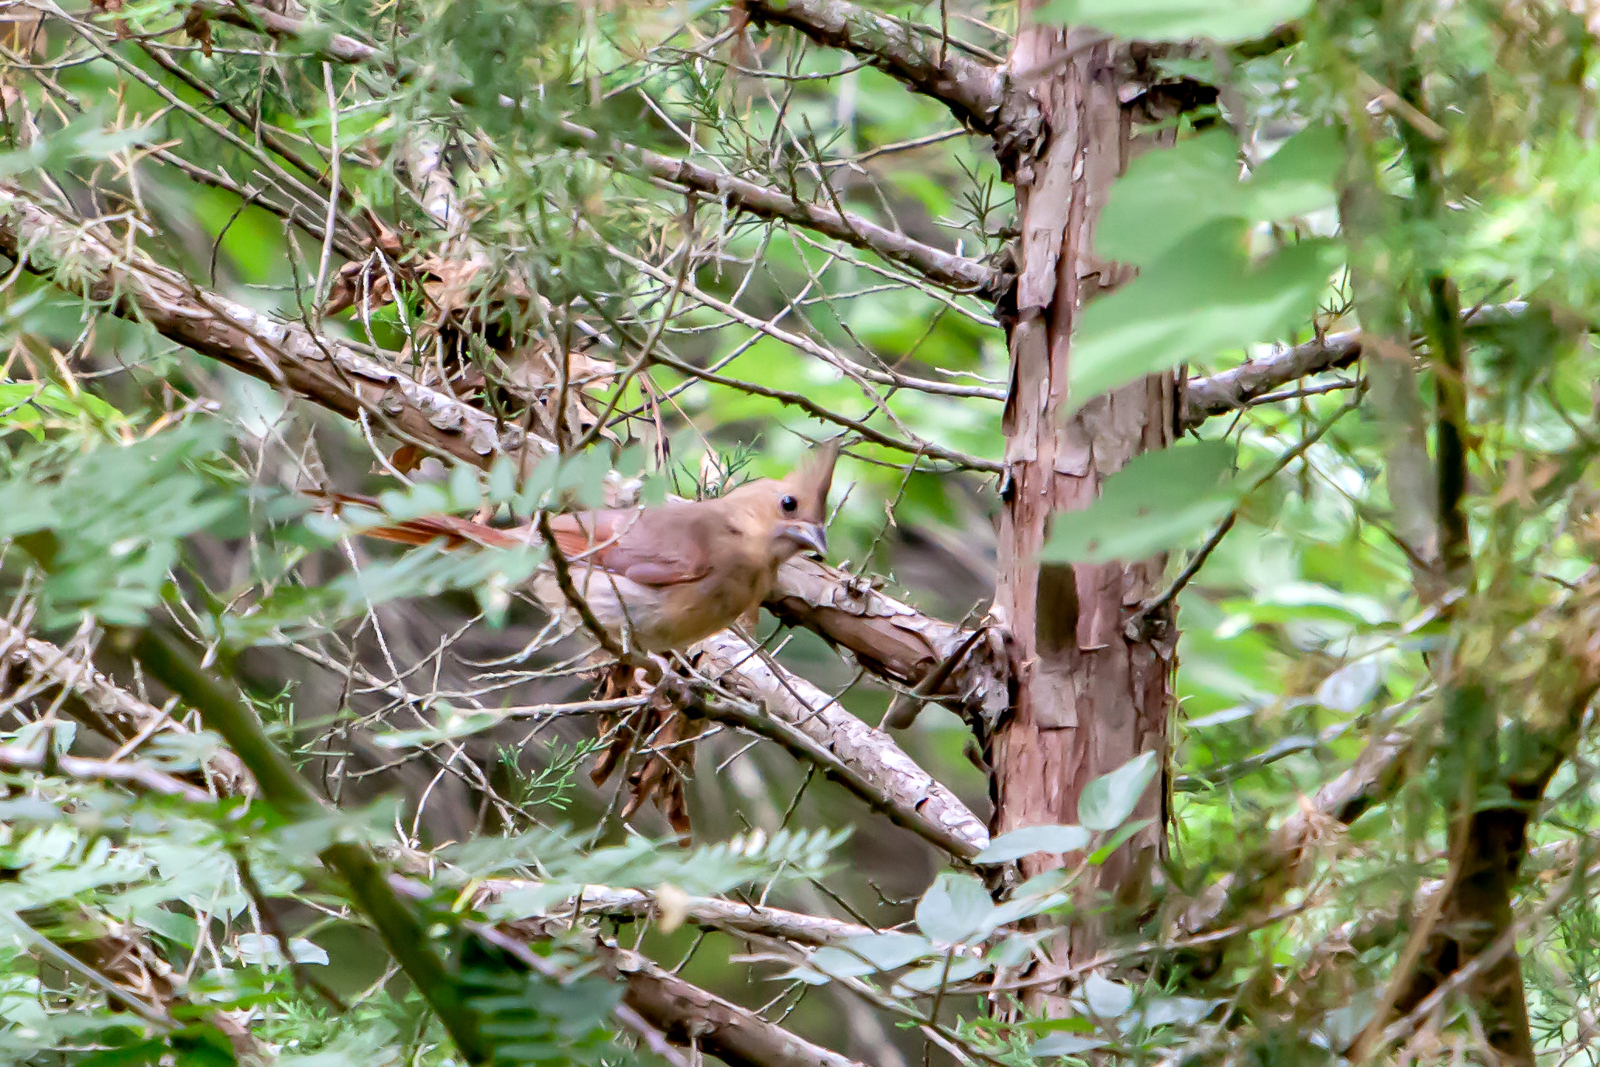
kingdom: Animalia
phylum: Chordata
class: Aves
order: Passeriformes
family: Cardinalidae
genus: Cardinalis
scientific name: Cardinalis cardinalis
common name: Northern cardinal
